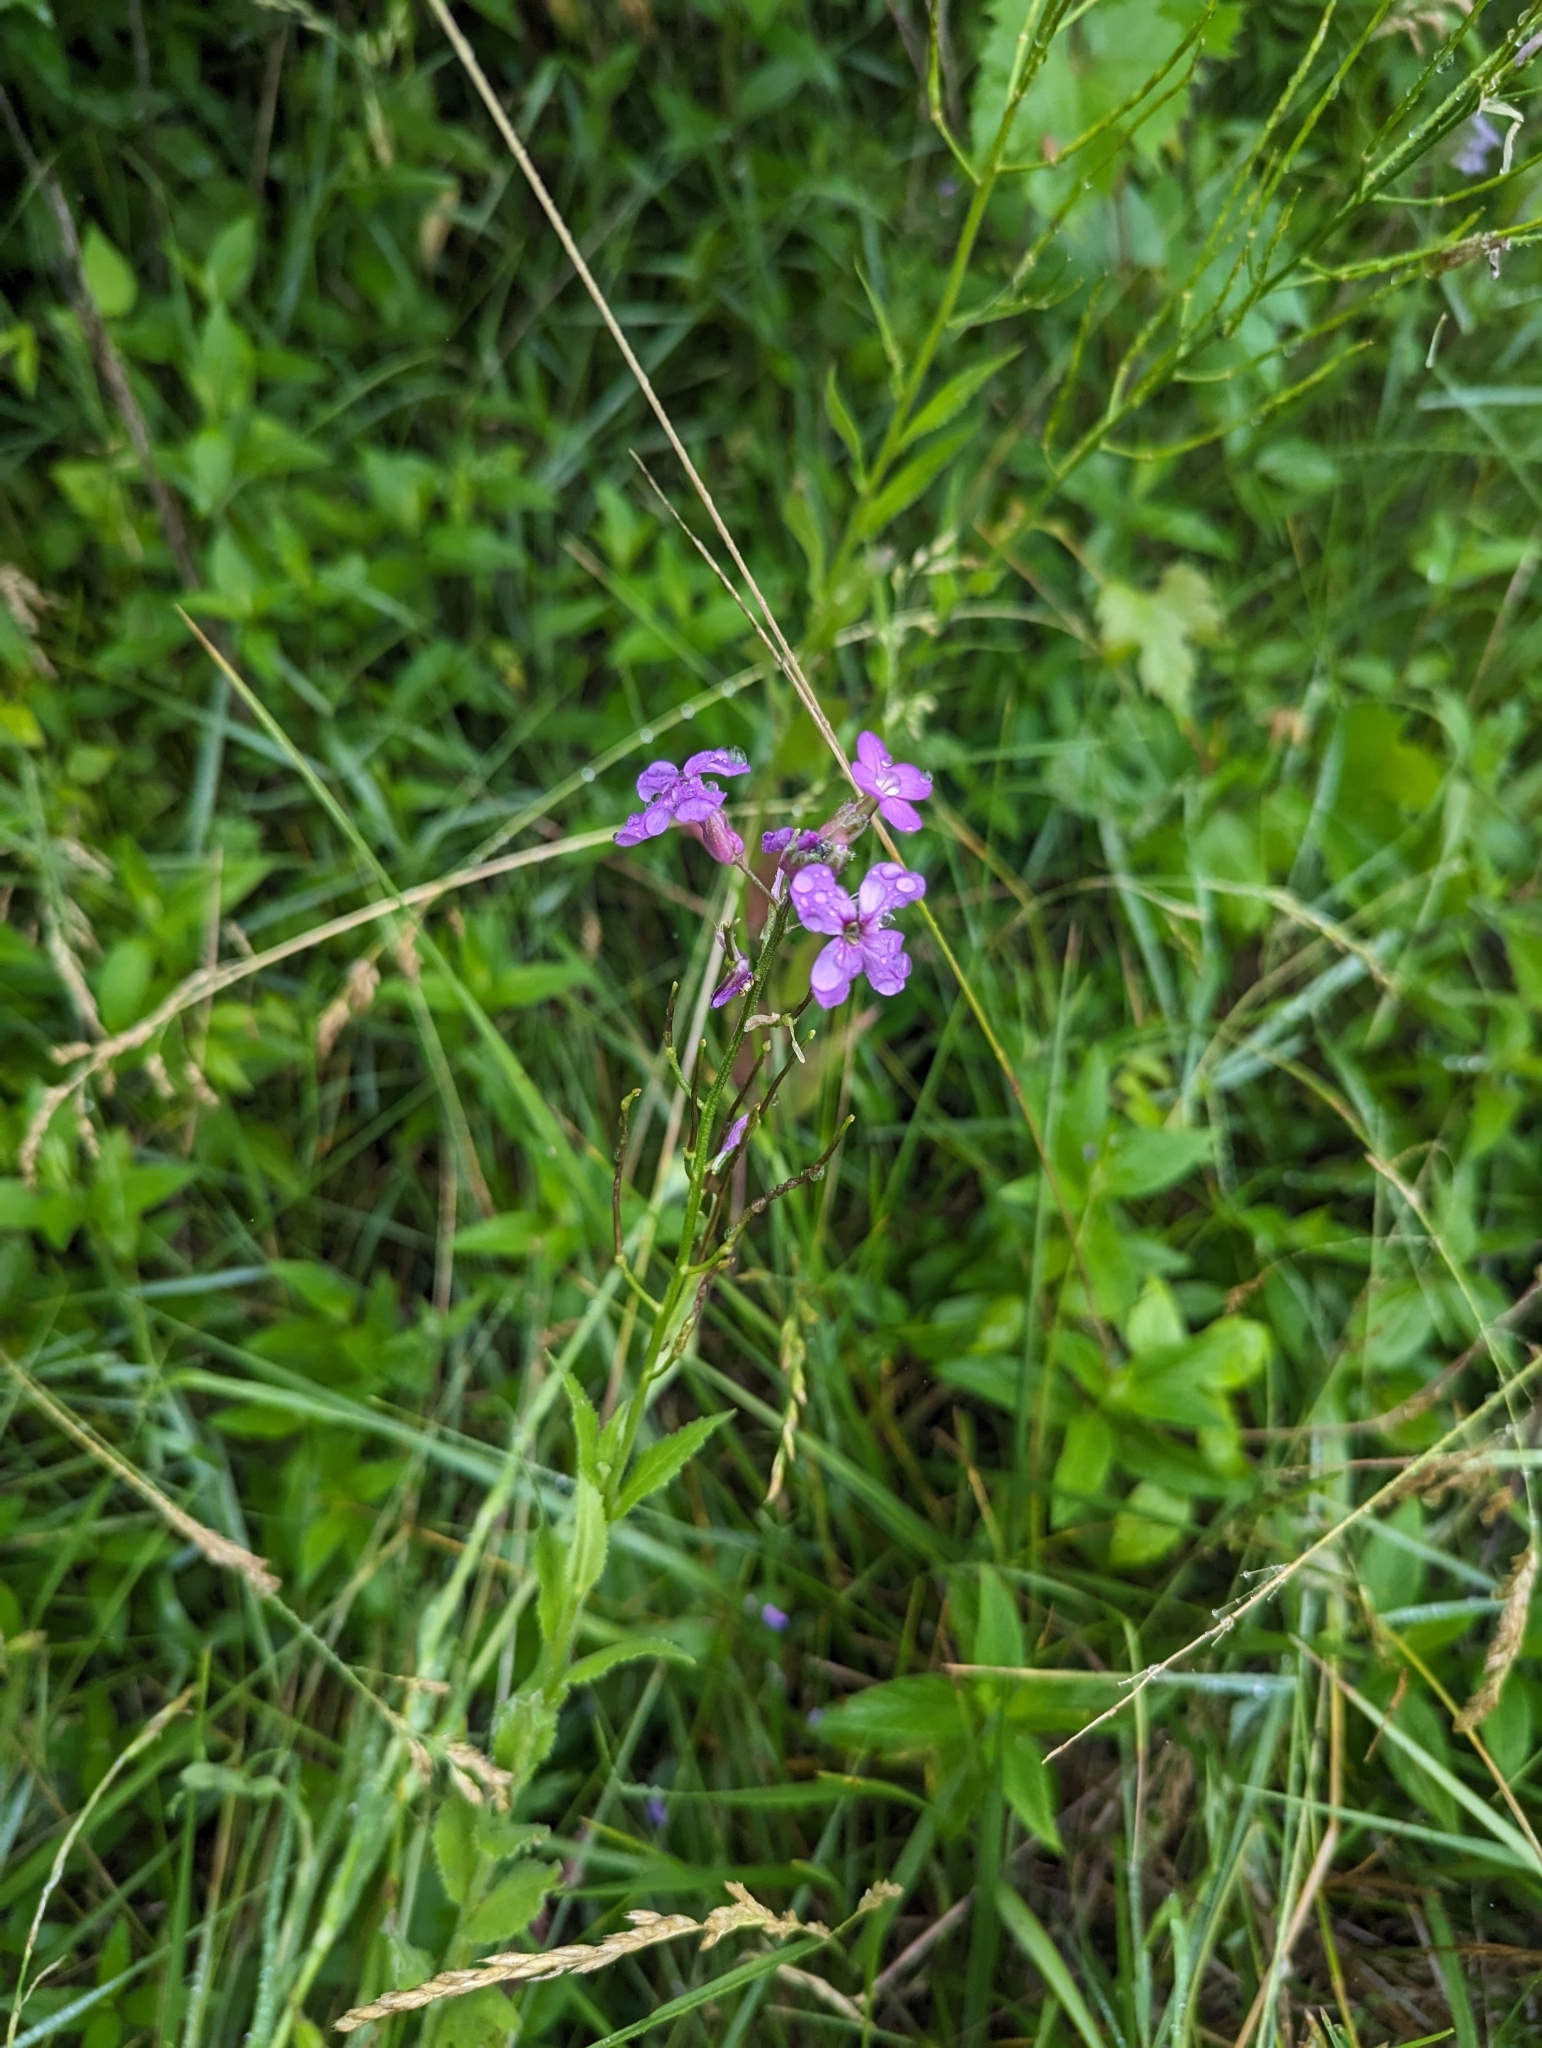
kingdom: Plantae
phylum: Tracheophyta
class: Magnoliopsida
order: Brassicales
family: Brassicaceae
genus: Hesperis
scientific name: Hesperis matronalis
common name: Dame's-violet
